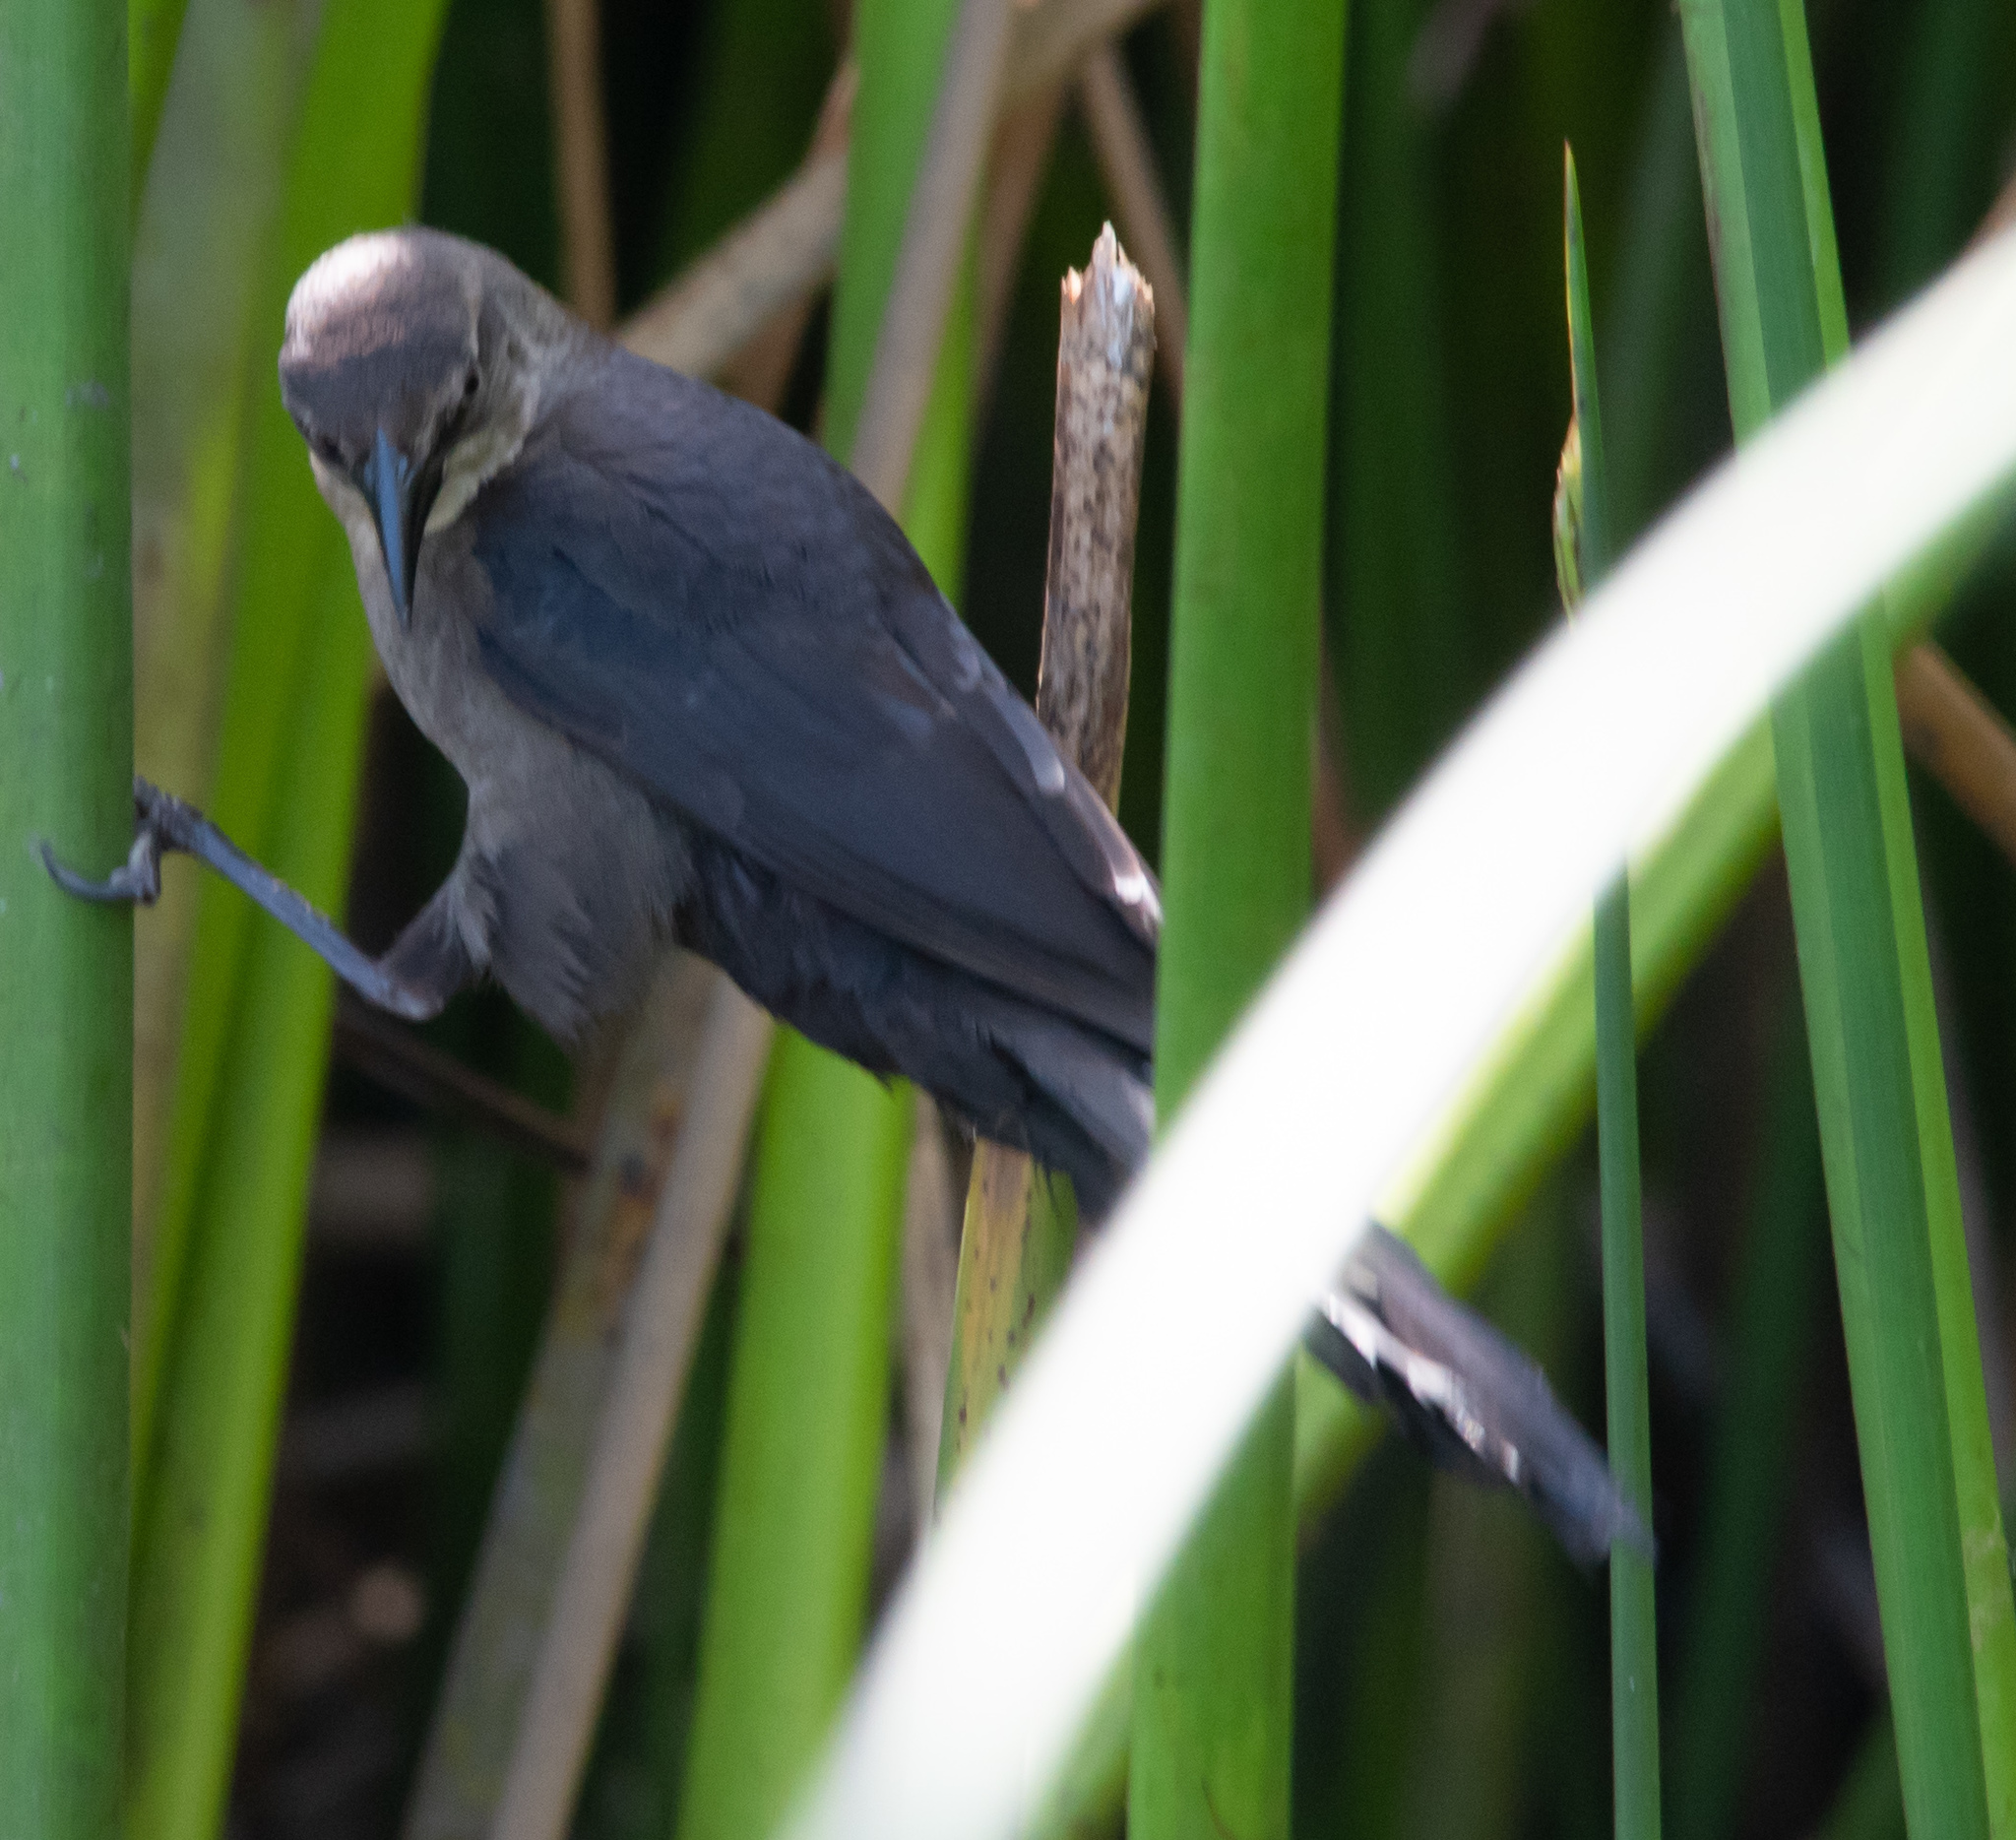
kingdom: Animalia
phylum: Chordata
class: Aves
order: Passeriformes
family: Icteridae
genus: Quiscalus
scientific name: Quiscalus mexicanus
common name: Great-tailed grackle
